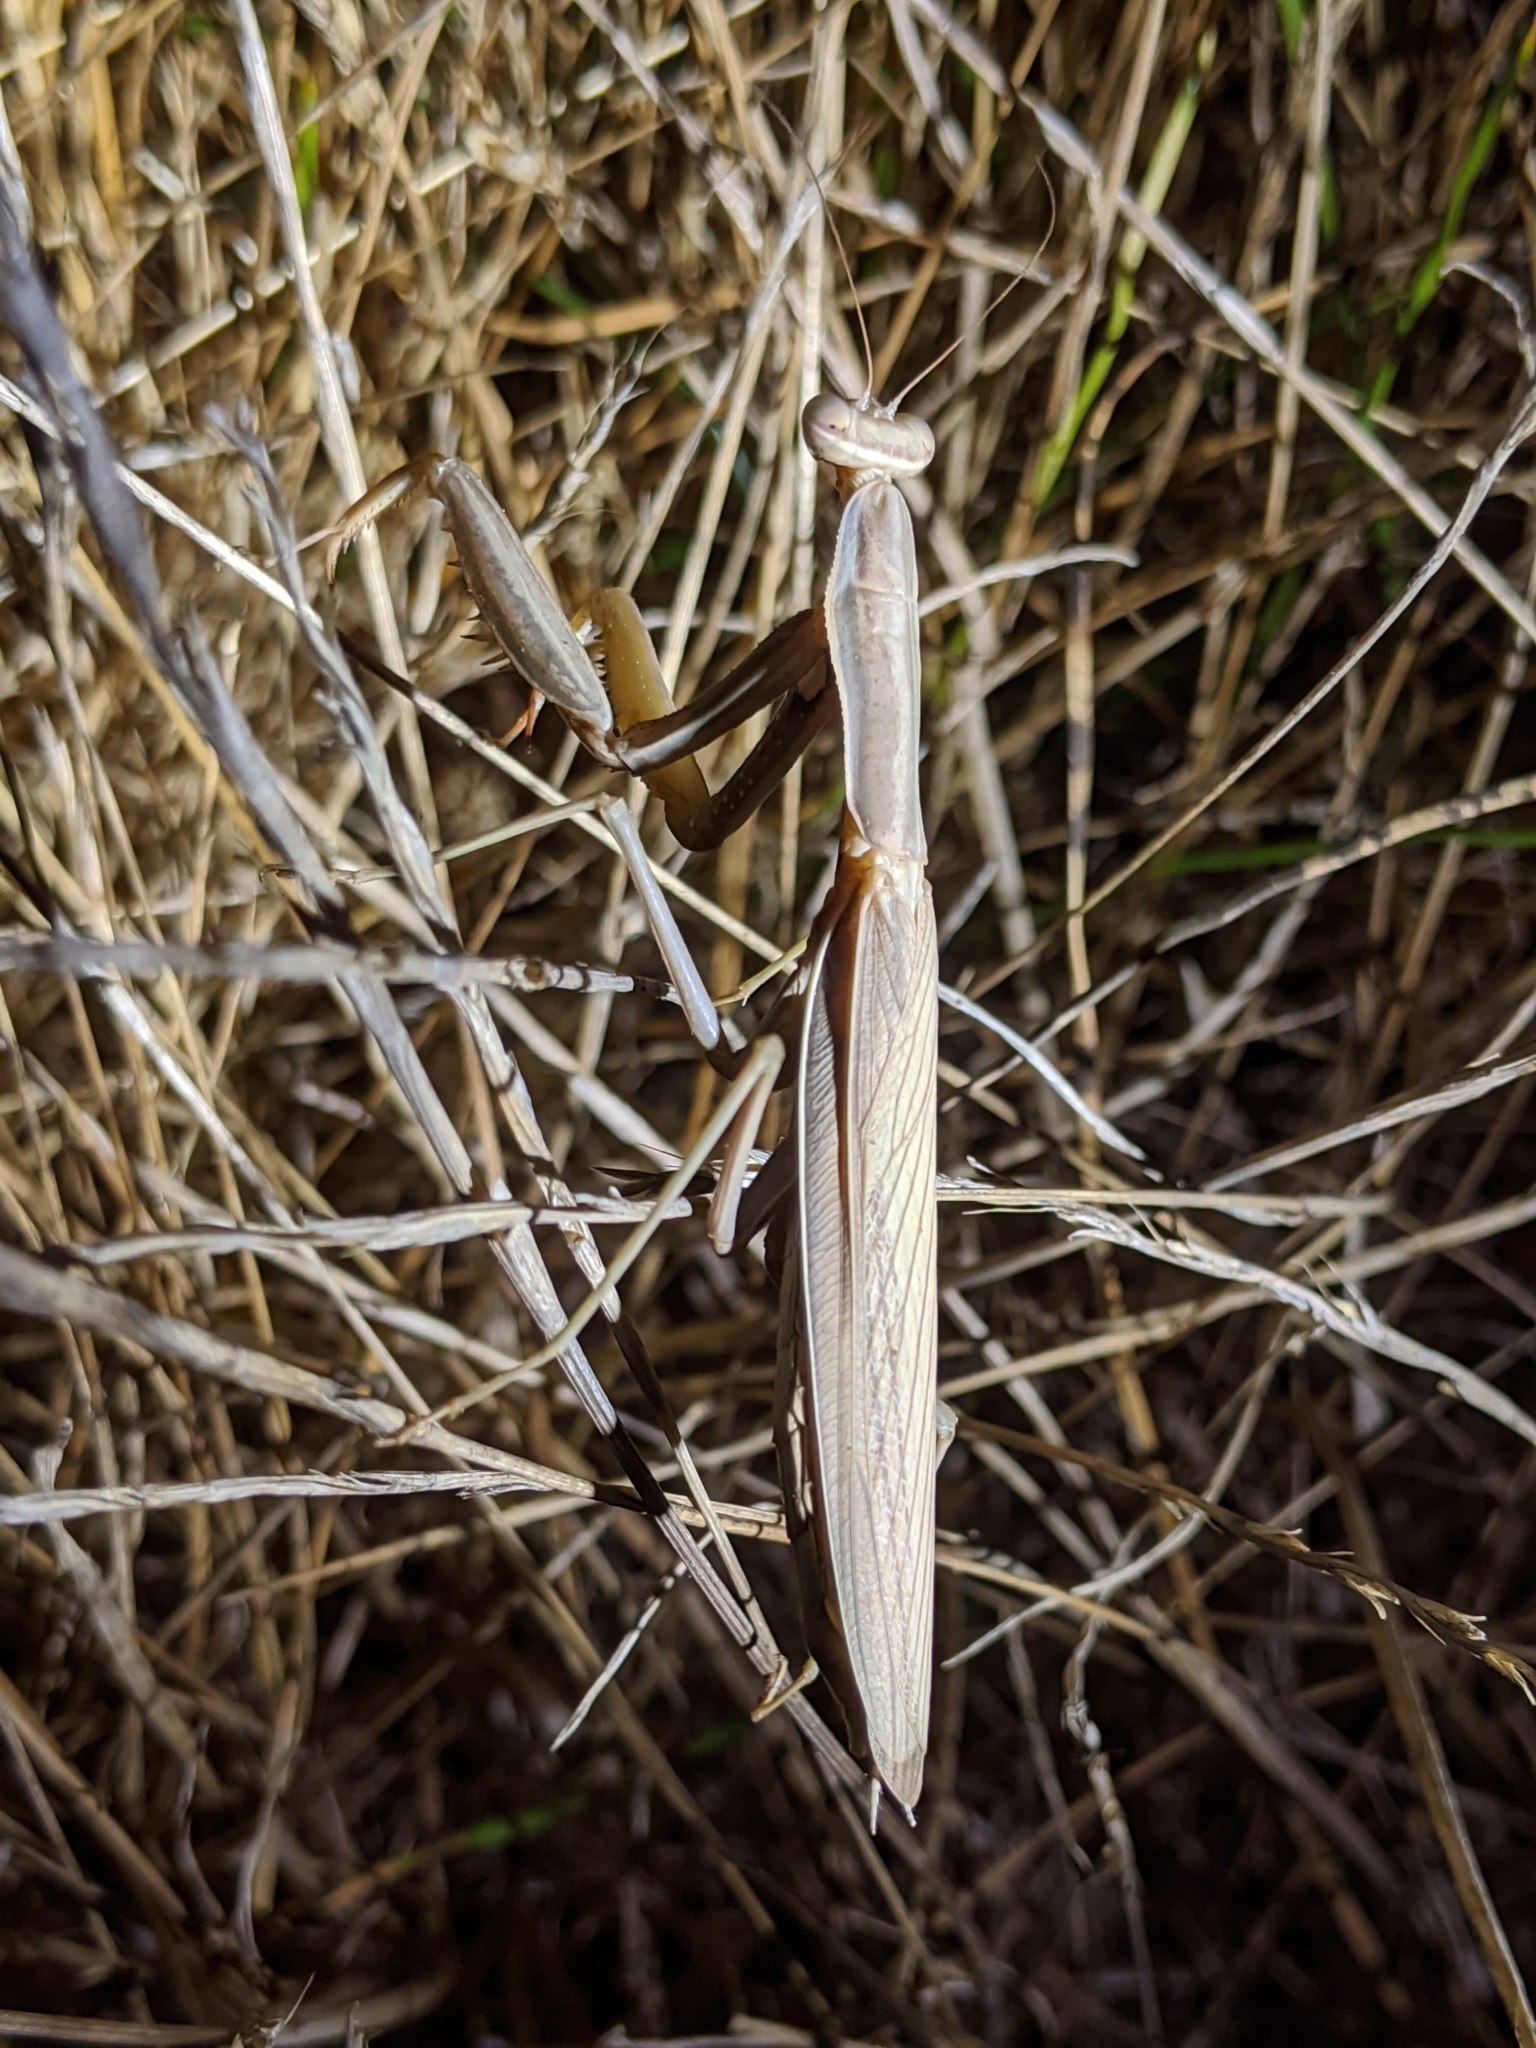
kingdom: Animalia
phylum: Arthropoda
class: Insecta
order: Mantodea
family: Mantidae
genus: Mantis
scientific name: Mantis religiosa
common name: Praying mantis
